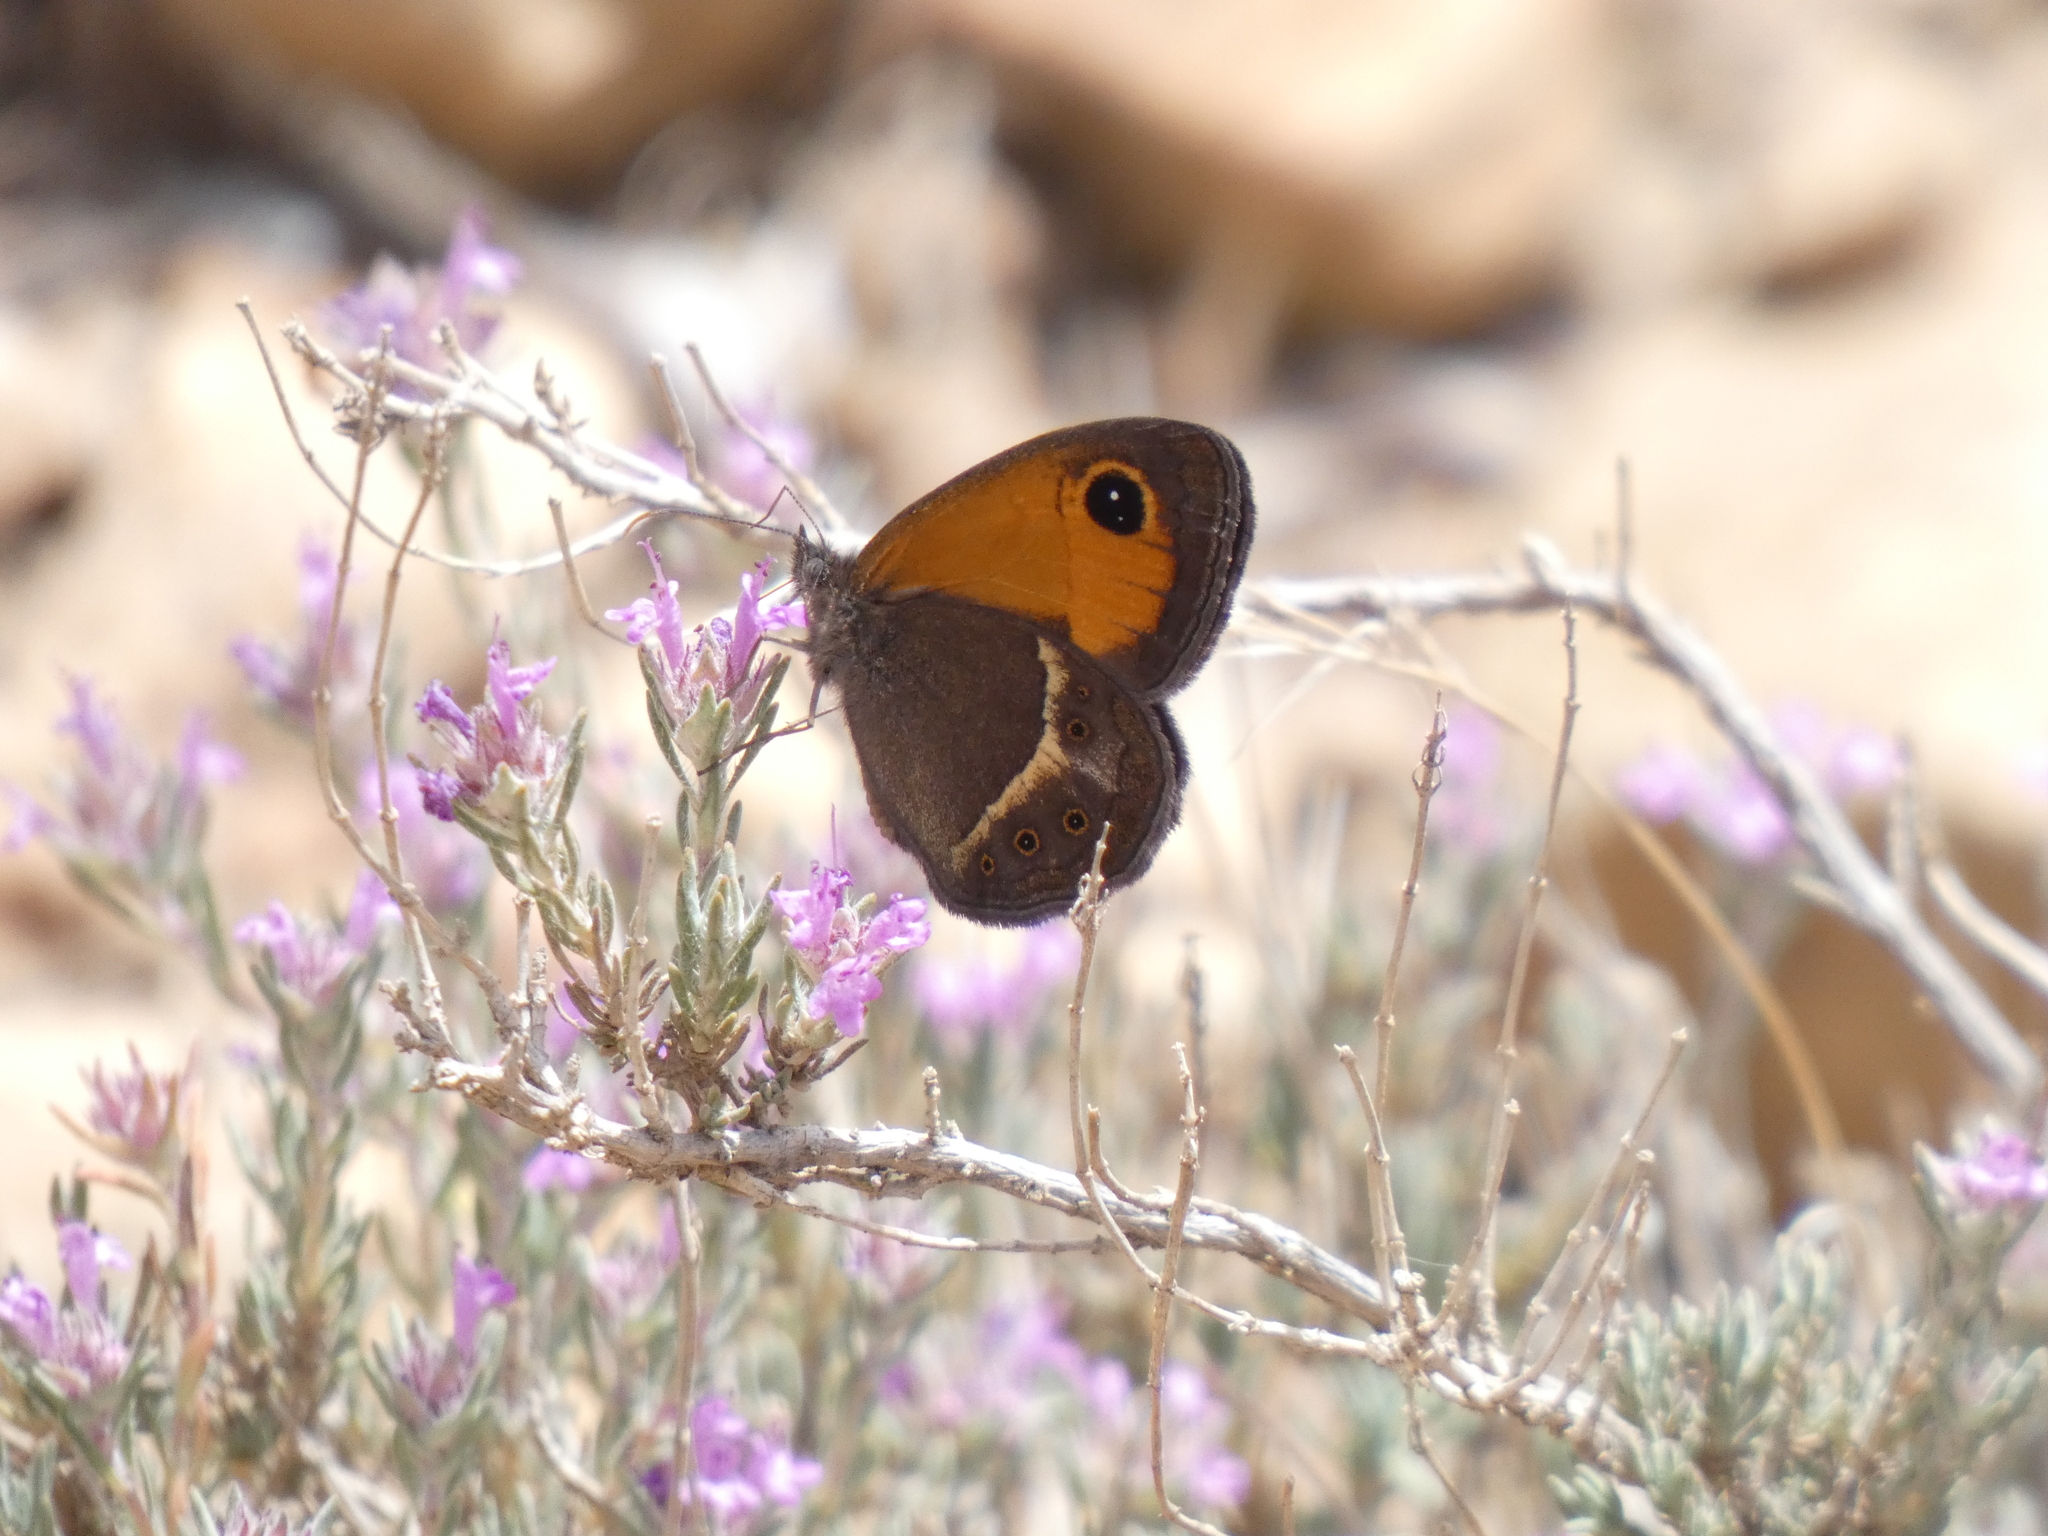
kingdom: Animalia
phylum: Arthropoda
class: Insecta
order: Lepidoptera
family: Nymphalidae
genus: Pyronia
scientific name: Pyronia bathseba
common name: Spanish gatekeeper
